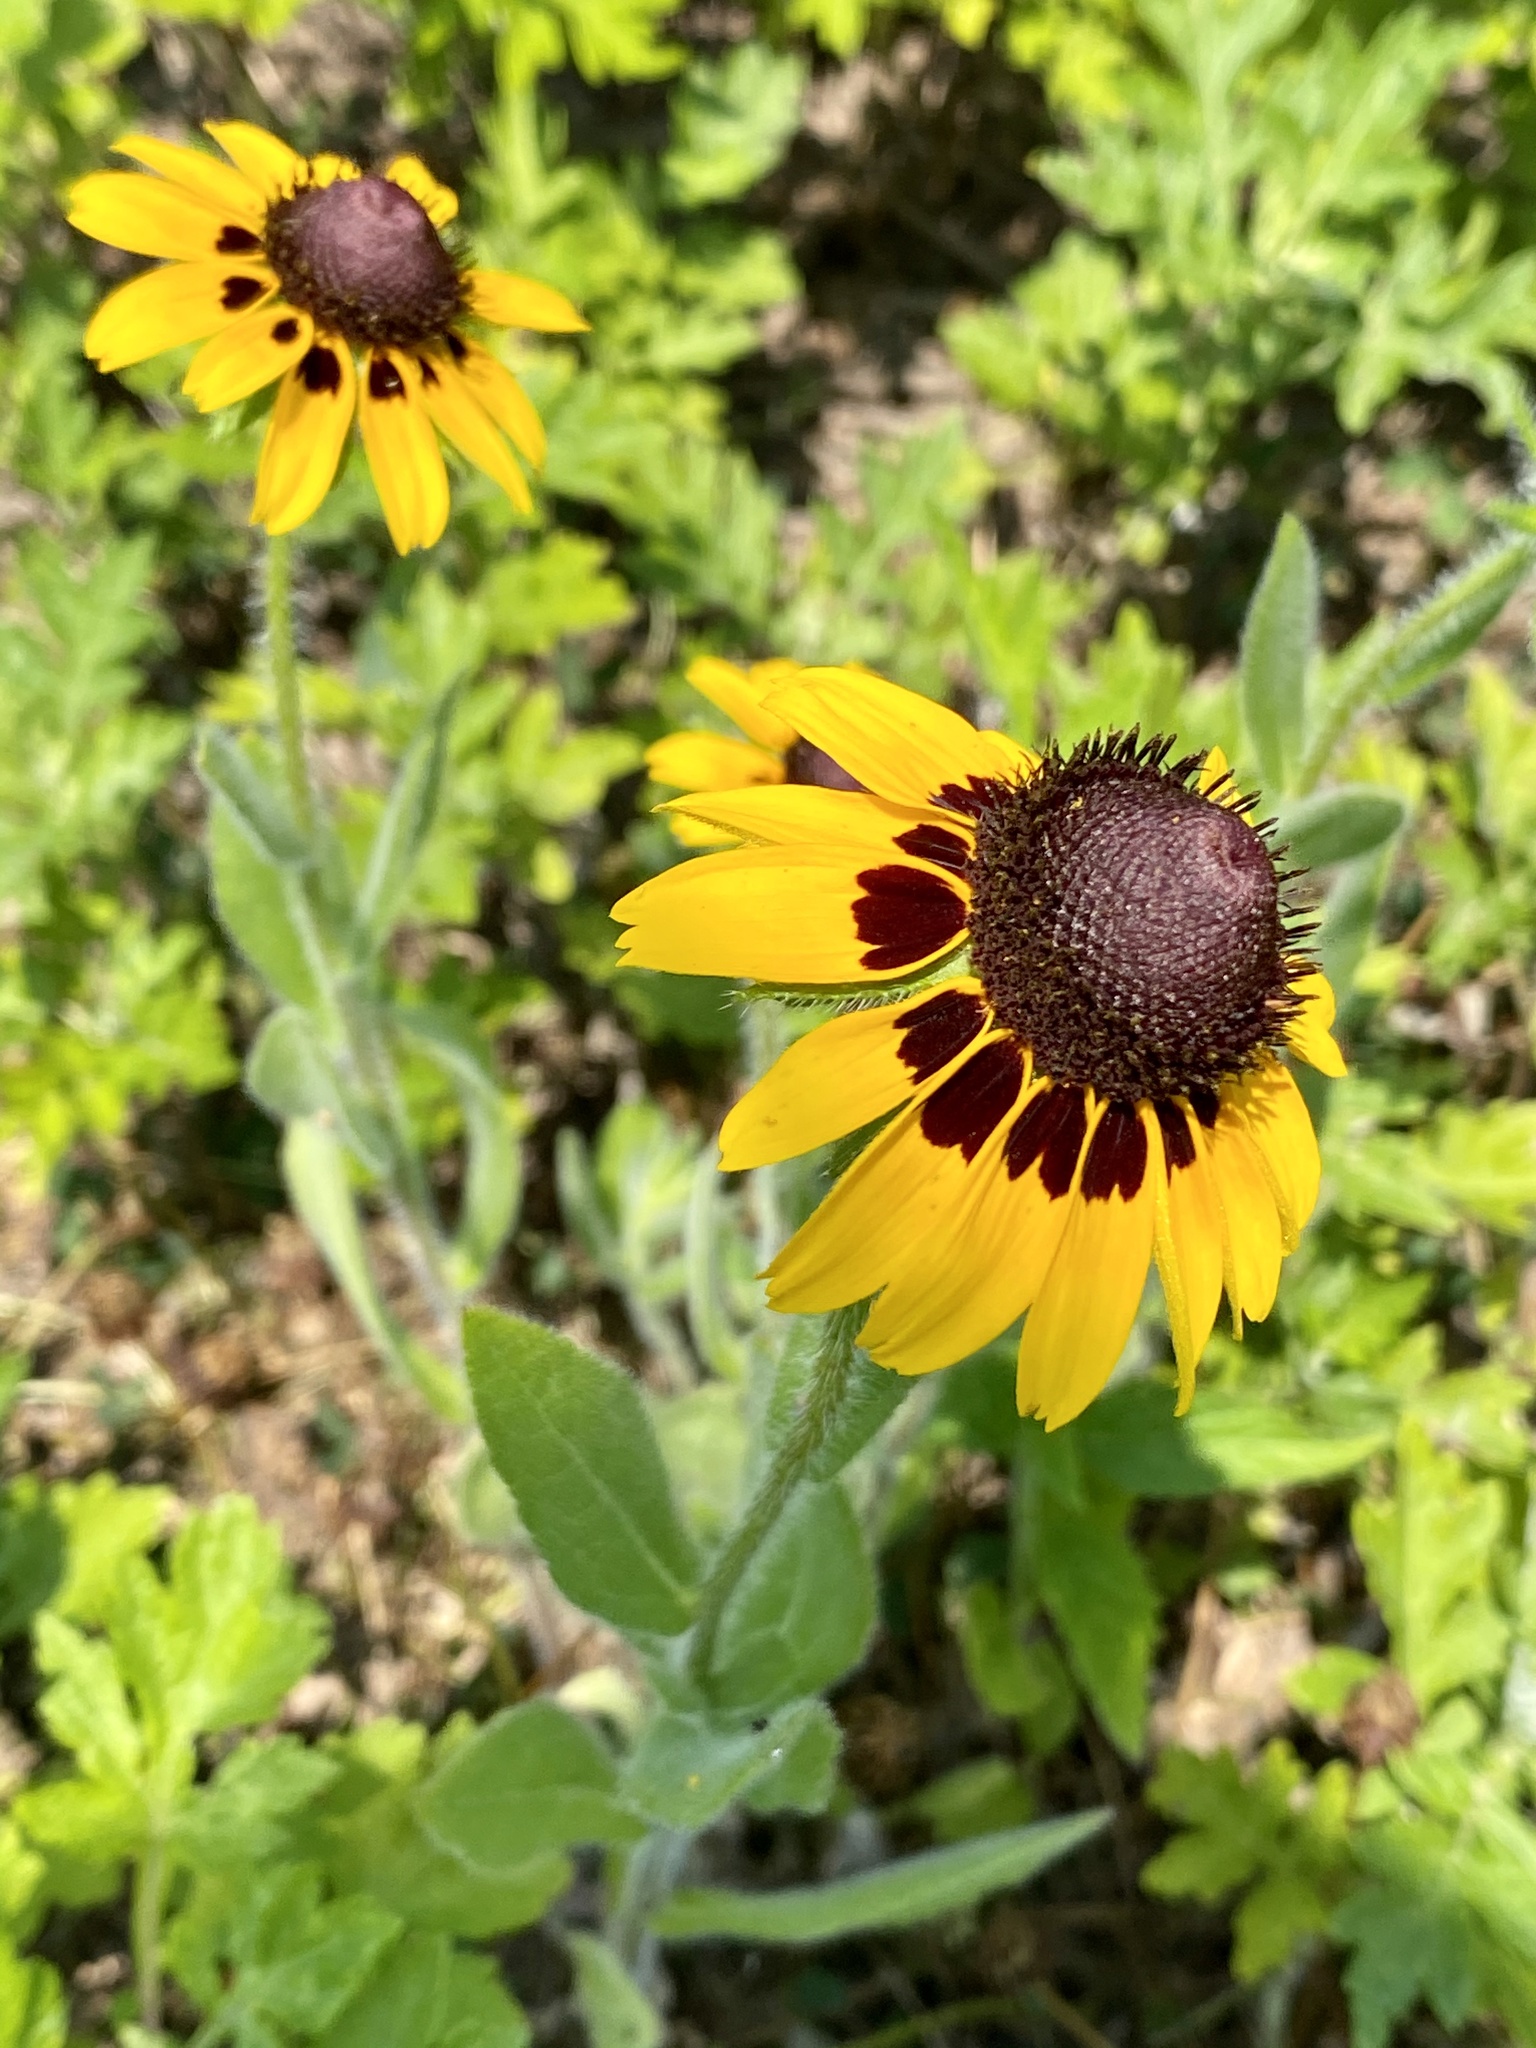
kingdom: Plantae
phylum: Tracheophyta
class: Magnoliopsida
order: Asterales
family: Asteraceae
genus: Rudbeckia
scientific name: Rudbeckia hirta
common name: Black-eyed-susan
